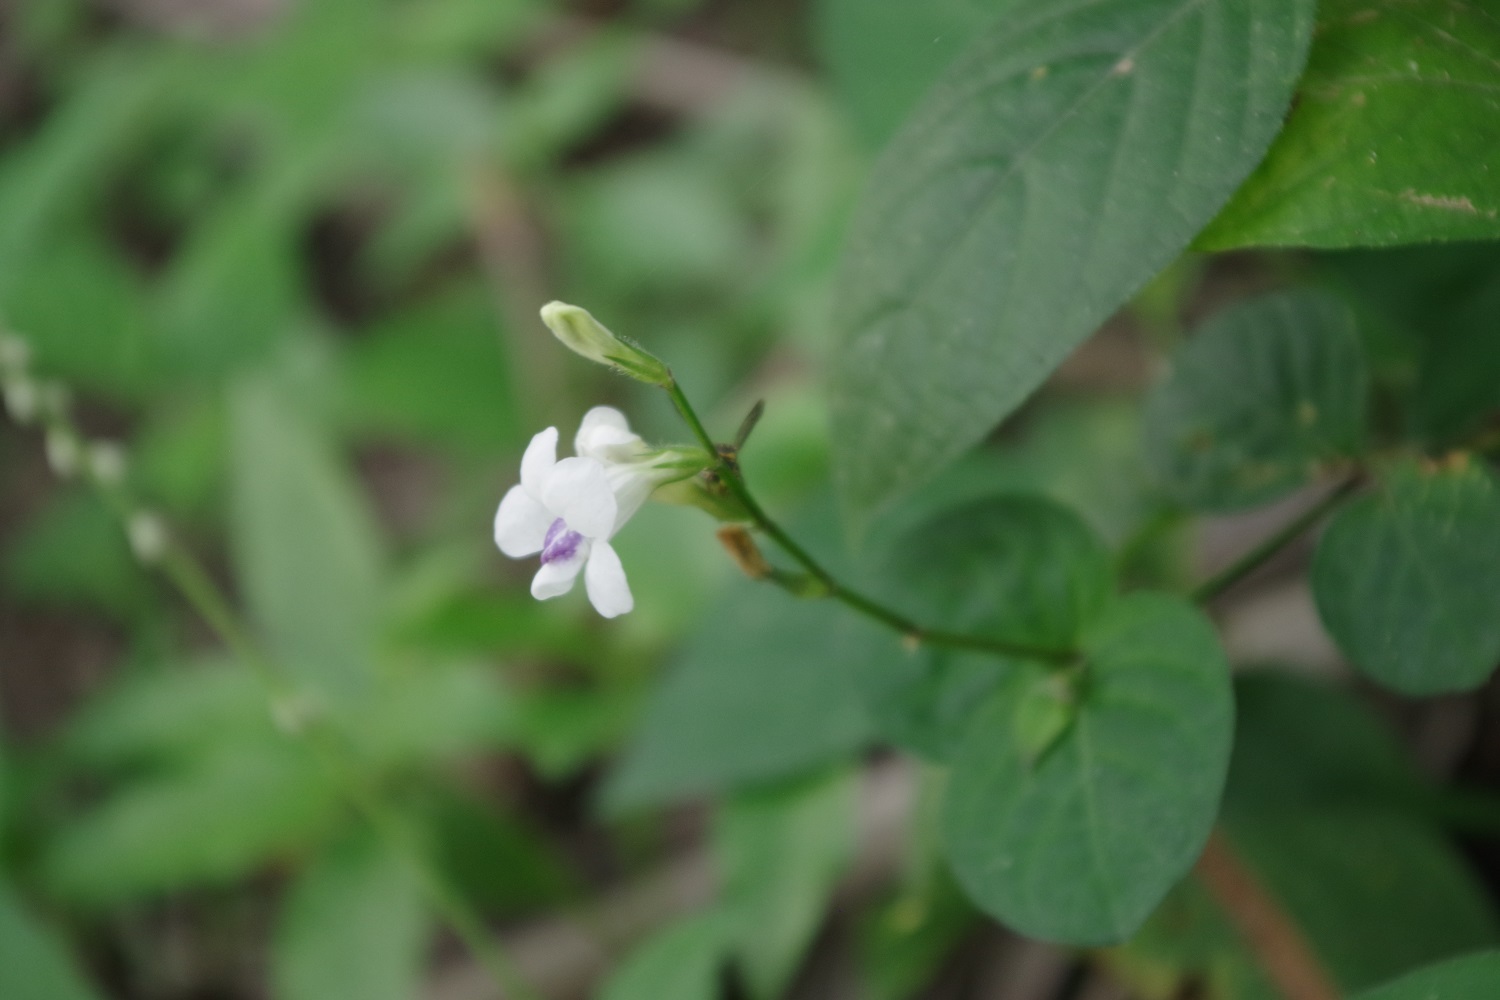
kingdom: Plantae
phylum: Tracheophyta
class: Magnoliopsida
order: Lamiales
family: Acanthaceae
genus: Asystasia
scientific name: Asystasia intrusa
